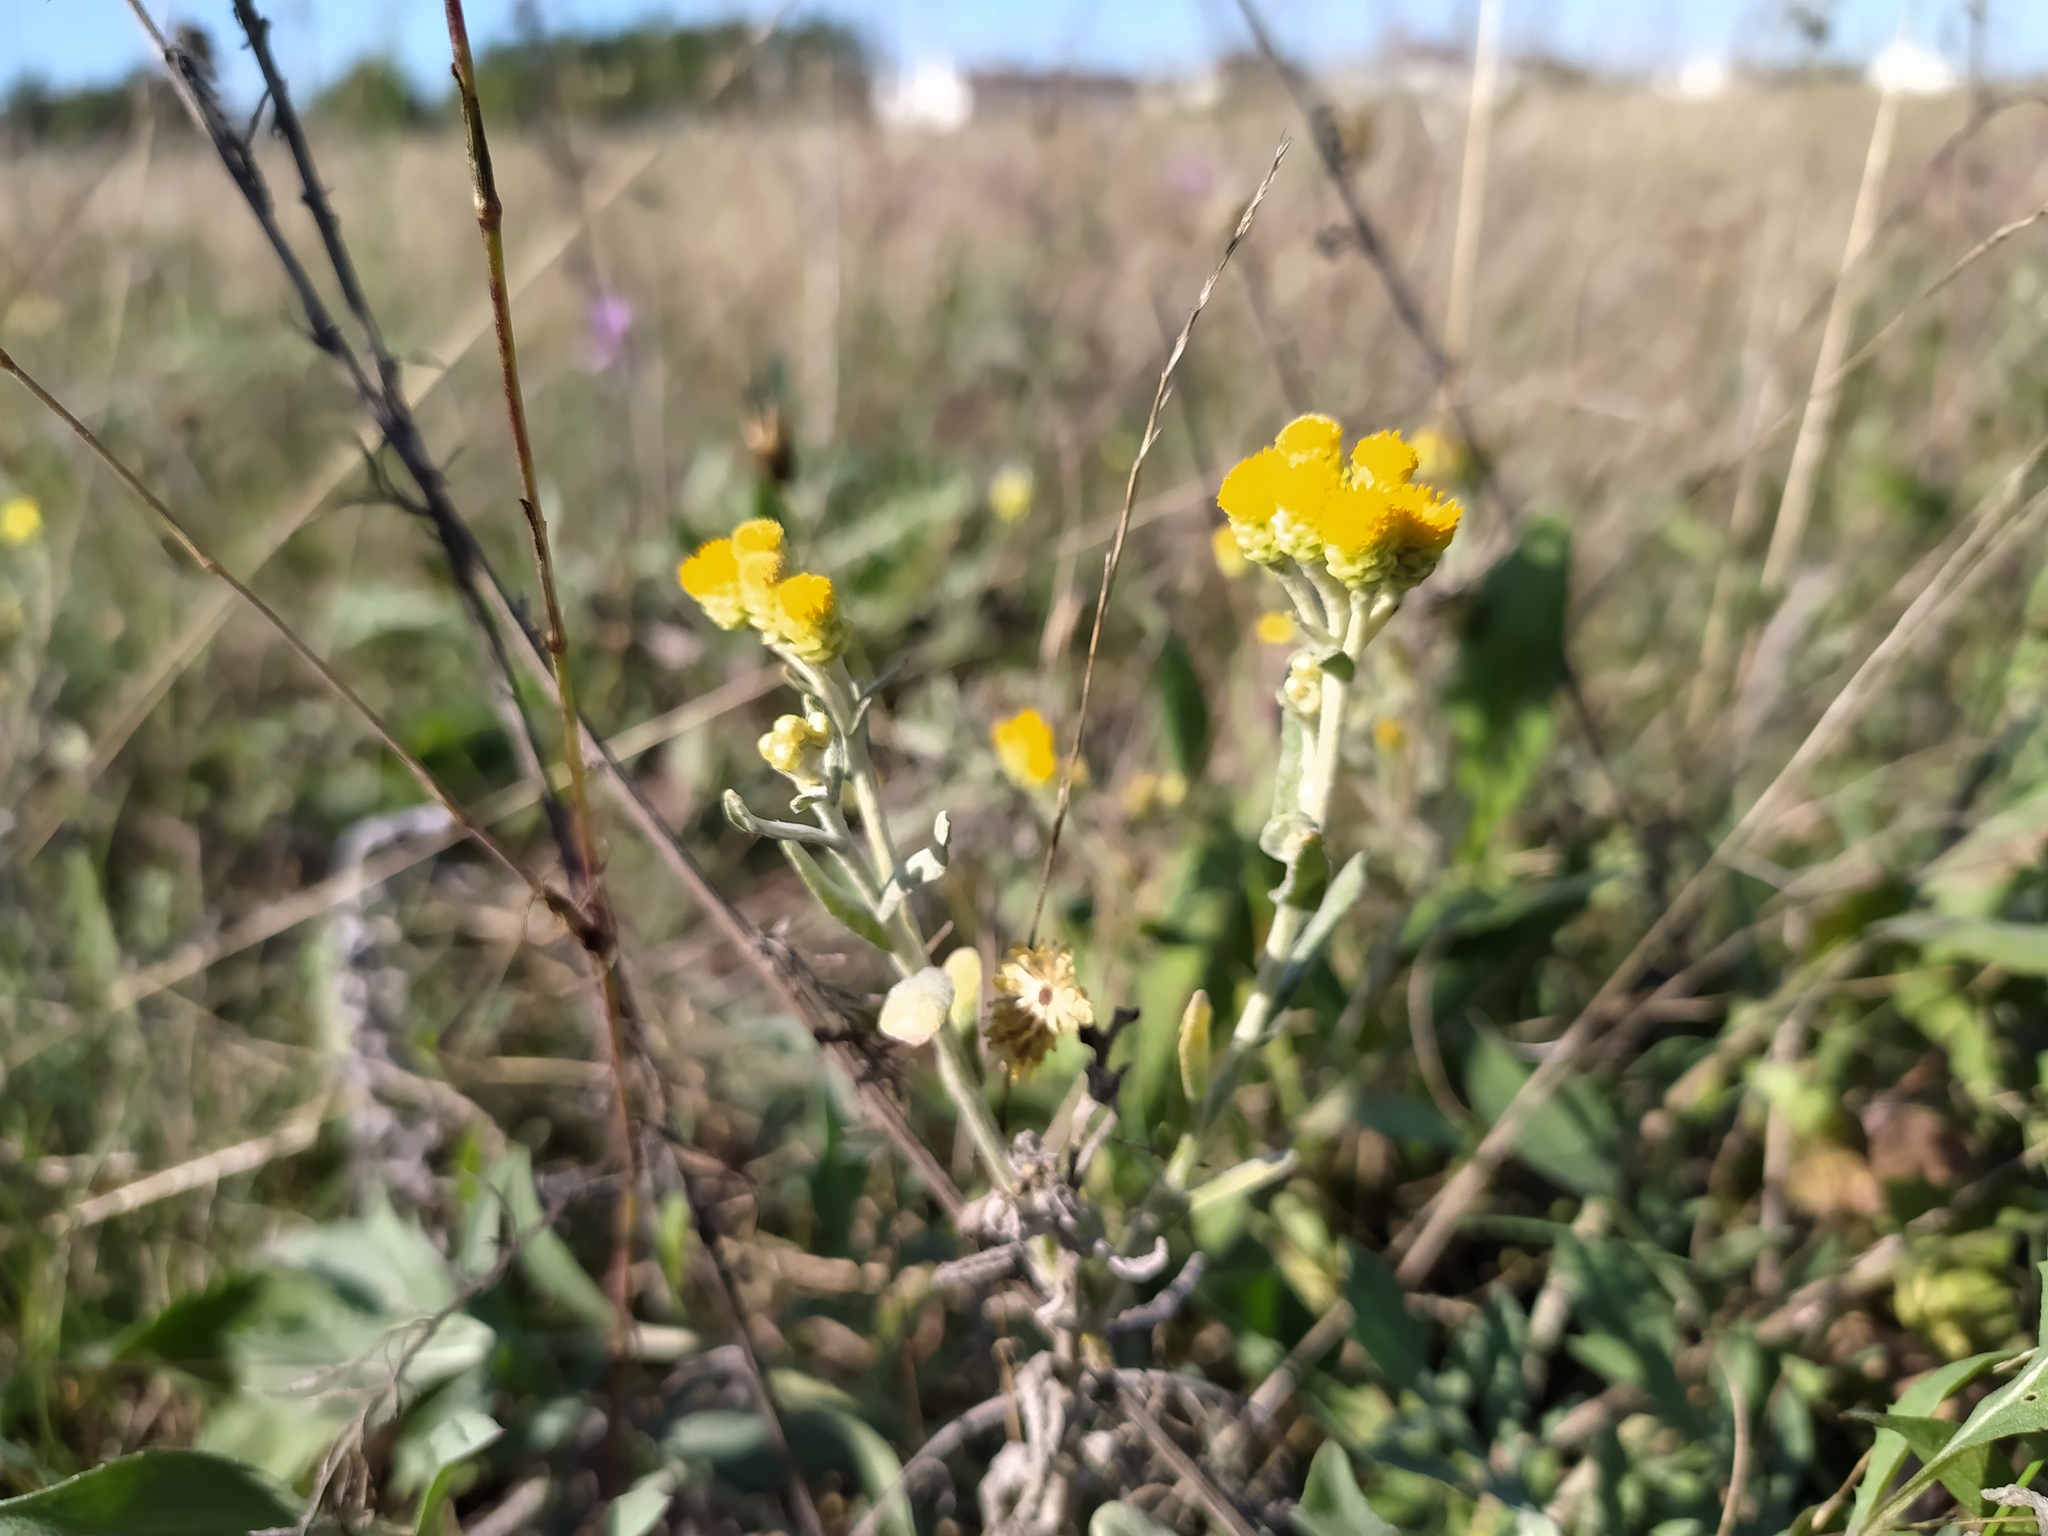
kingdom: Plantae
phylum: Tracheophyta
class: Magnoliopsida
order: Asterales
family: Asteraceae
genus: Helichrysum
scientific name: Helichrysum arenarium
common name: Strawflower
